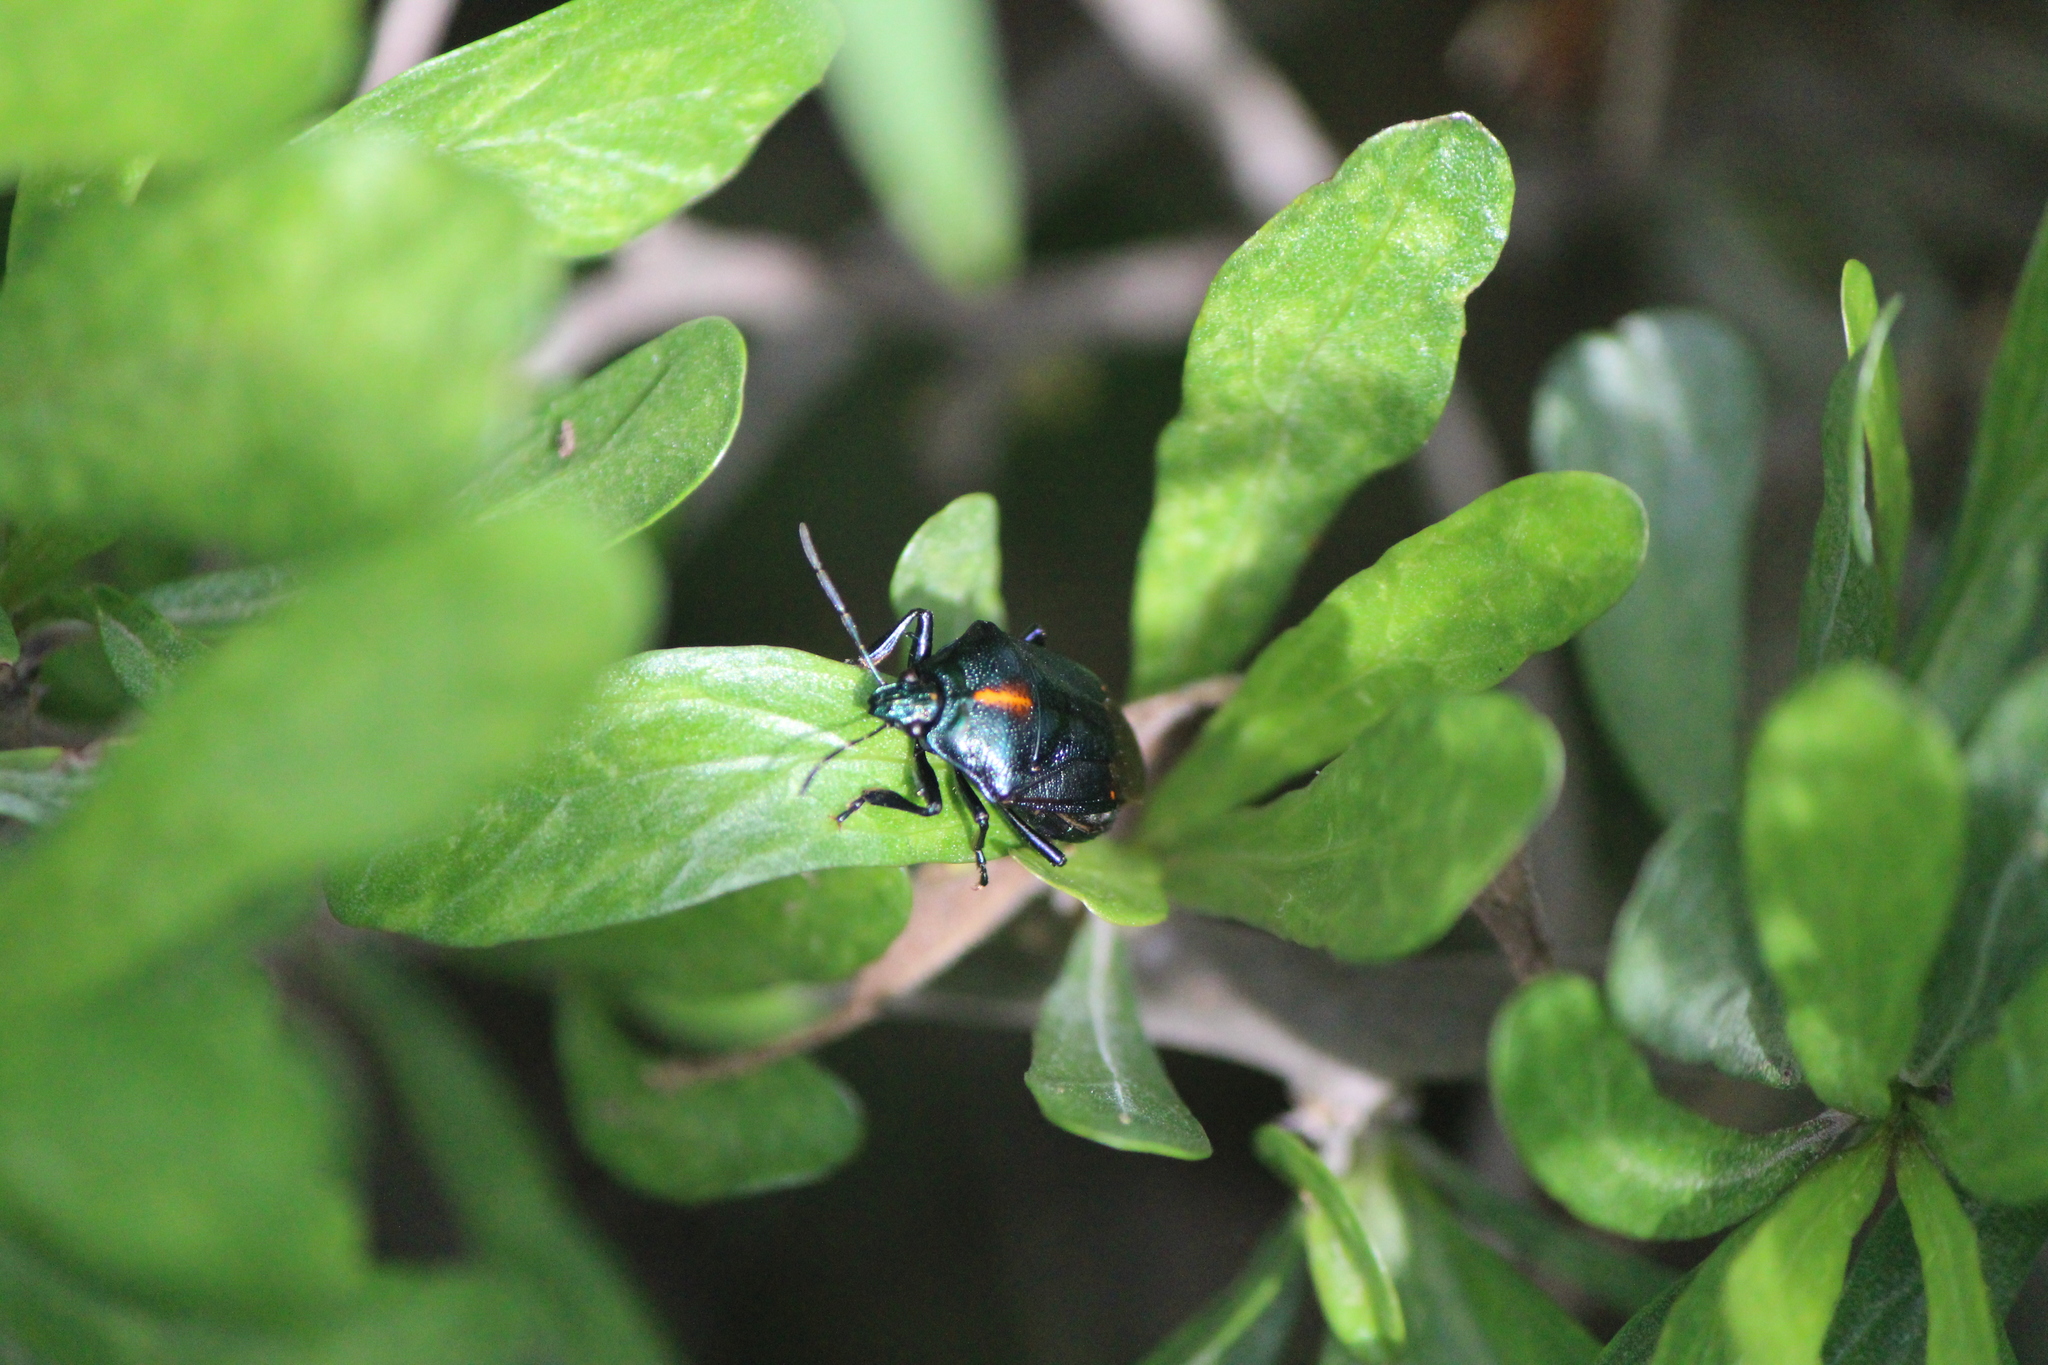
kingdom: Animalia
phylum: Arthropoda
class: Insecta
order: Hemiptera
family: Pentatomidae
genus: Stiretrus
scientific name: Stiretrus anchorago
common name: Anchor stink bug
